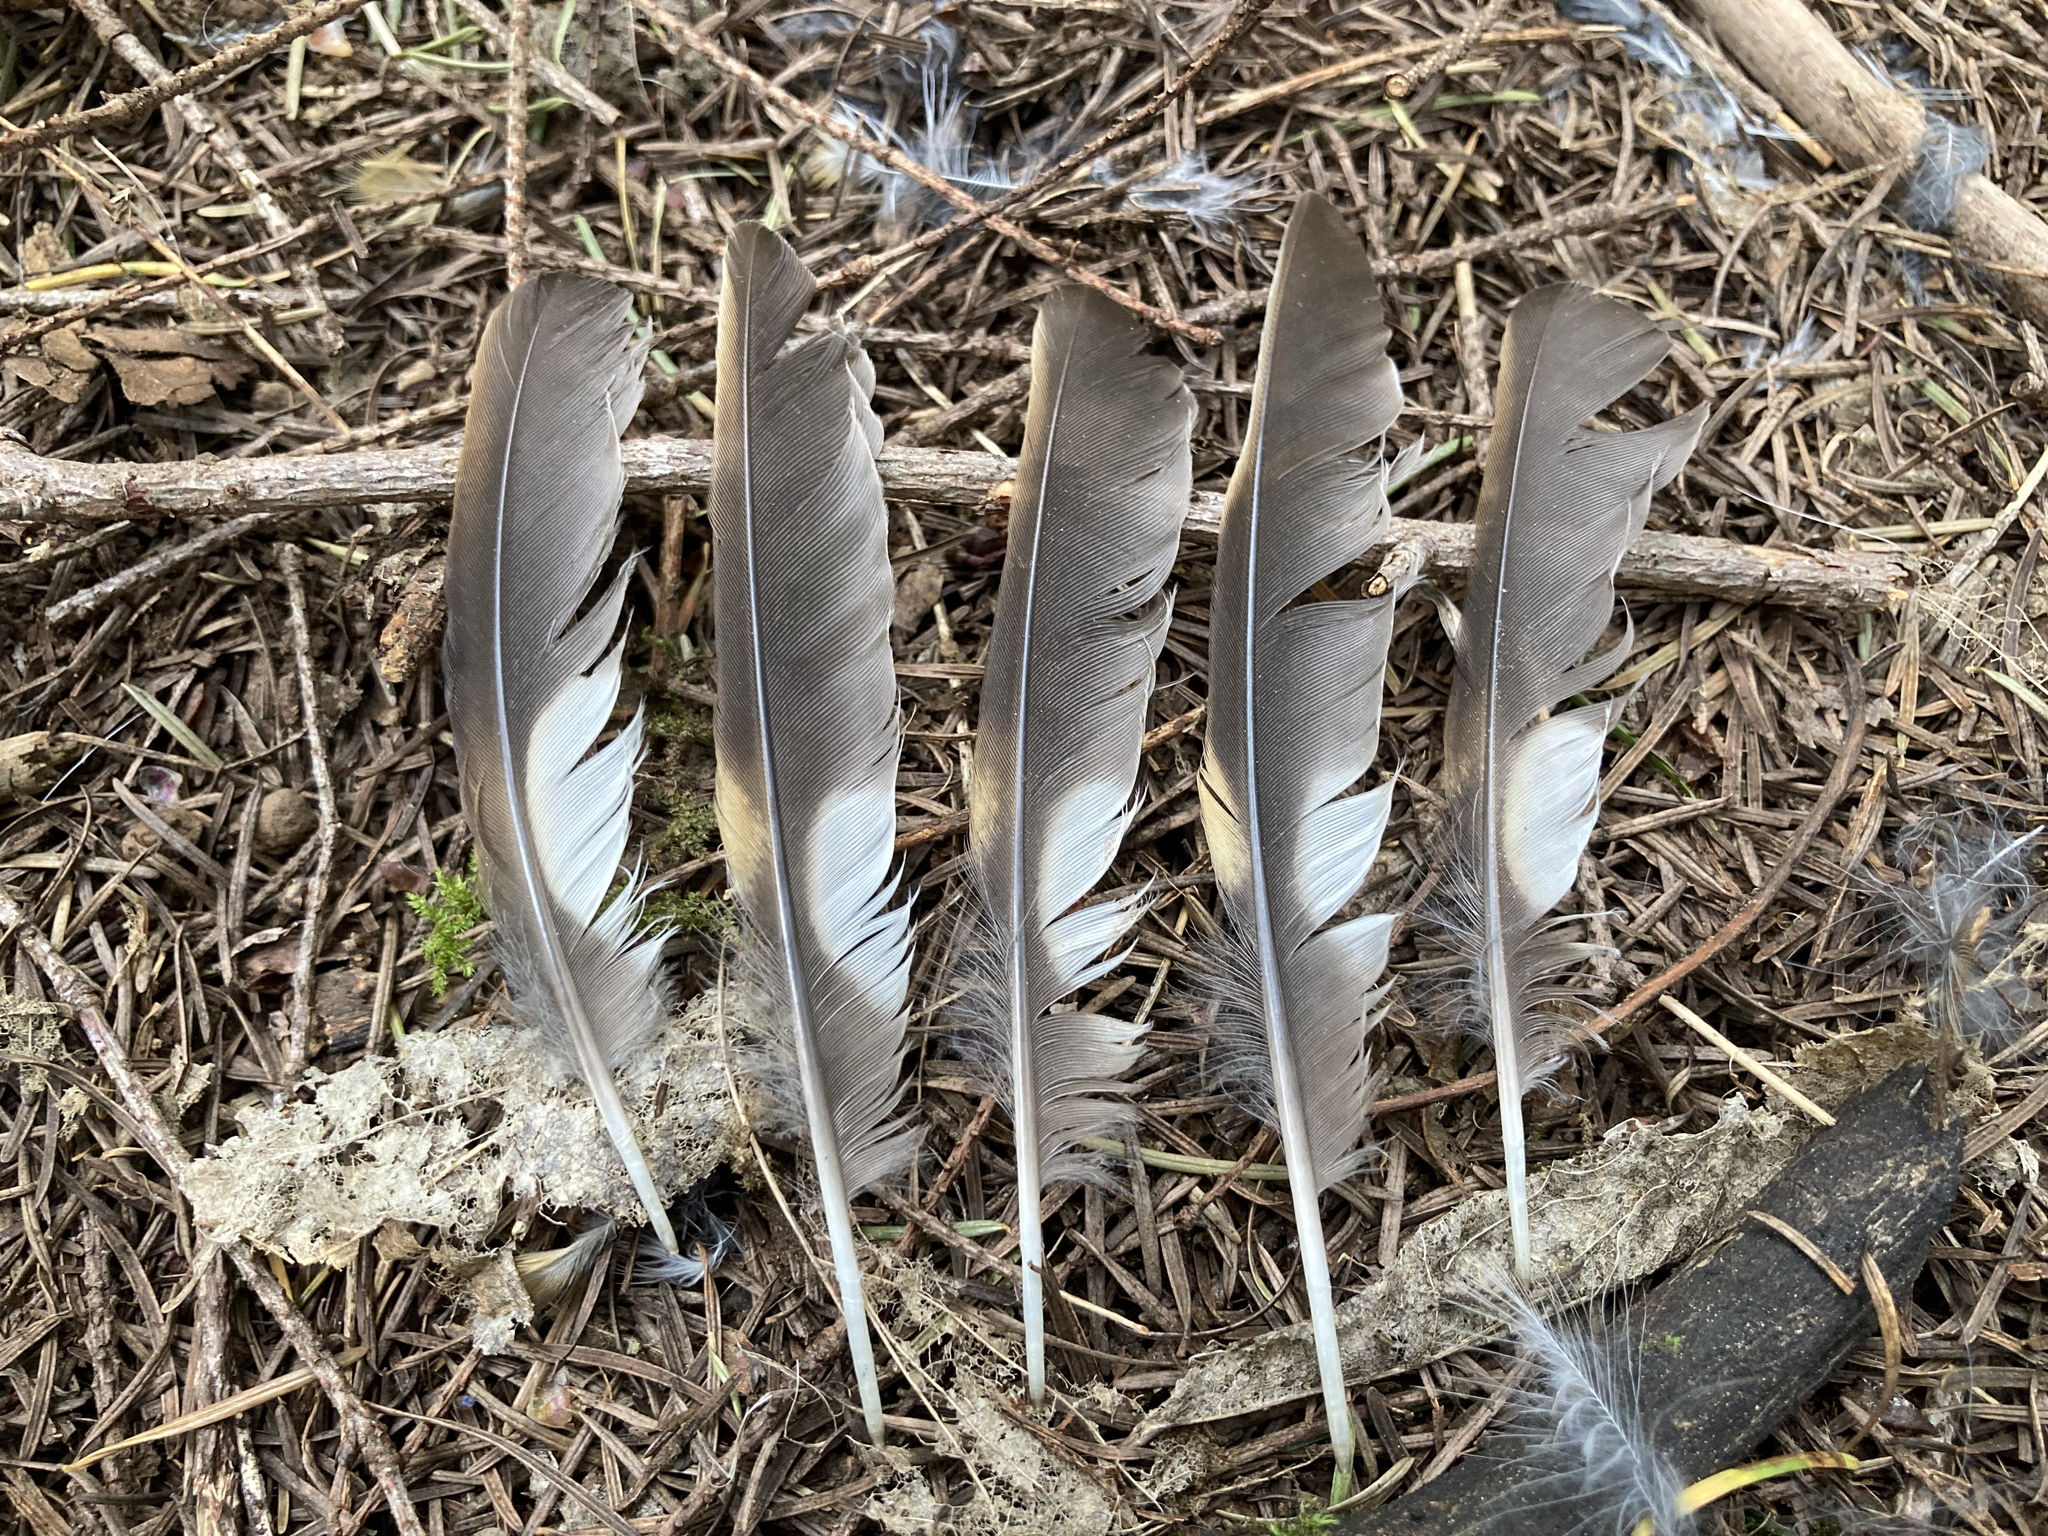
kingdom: Animalia
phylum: Chordata
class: Aves
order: Passeriformes
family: Turdidae
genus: Ixoreus
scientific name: Ixoreus naevius
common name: Varied thrush
